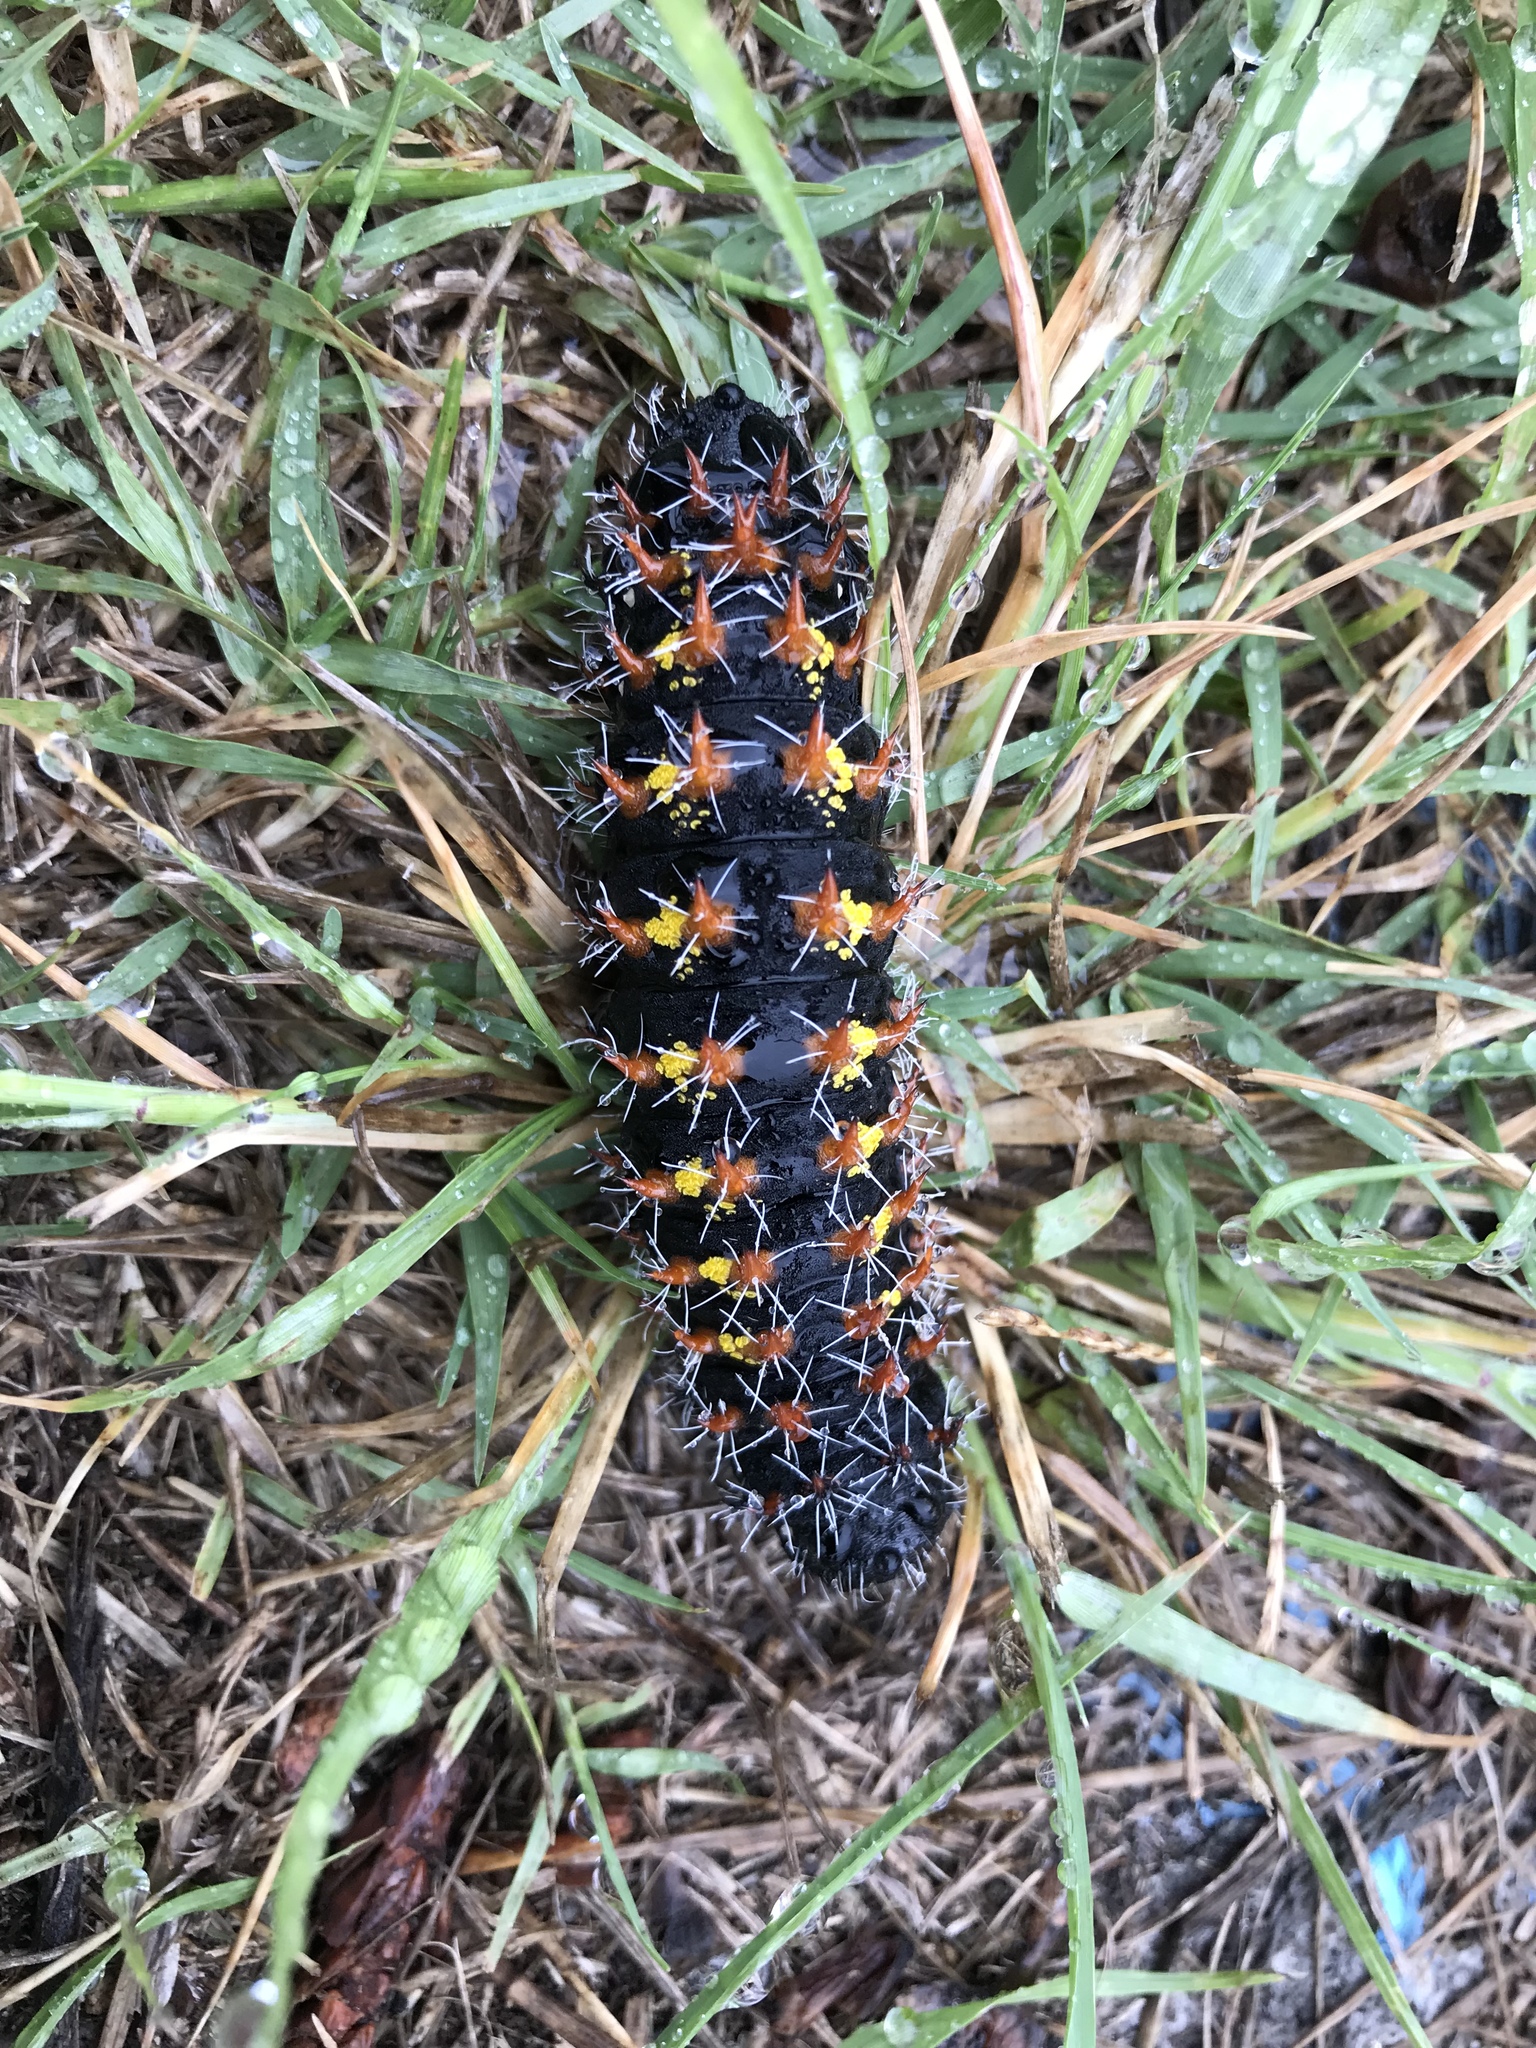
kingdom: Animalia
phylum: Arthropoda
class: Insecta
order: Lepidoptera
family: Saturniidae
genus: Nudaurelia
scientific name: Nudaurelia wahlbergi
